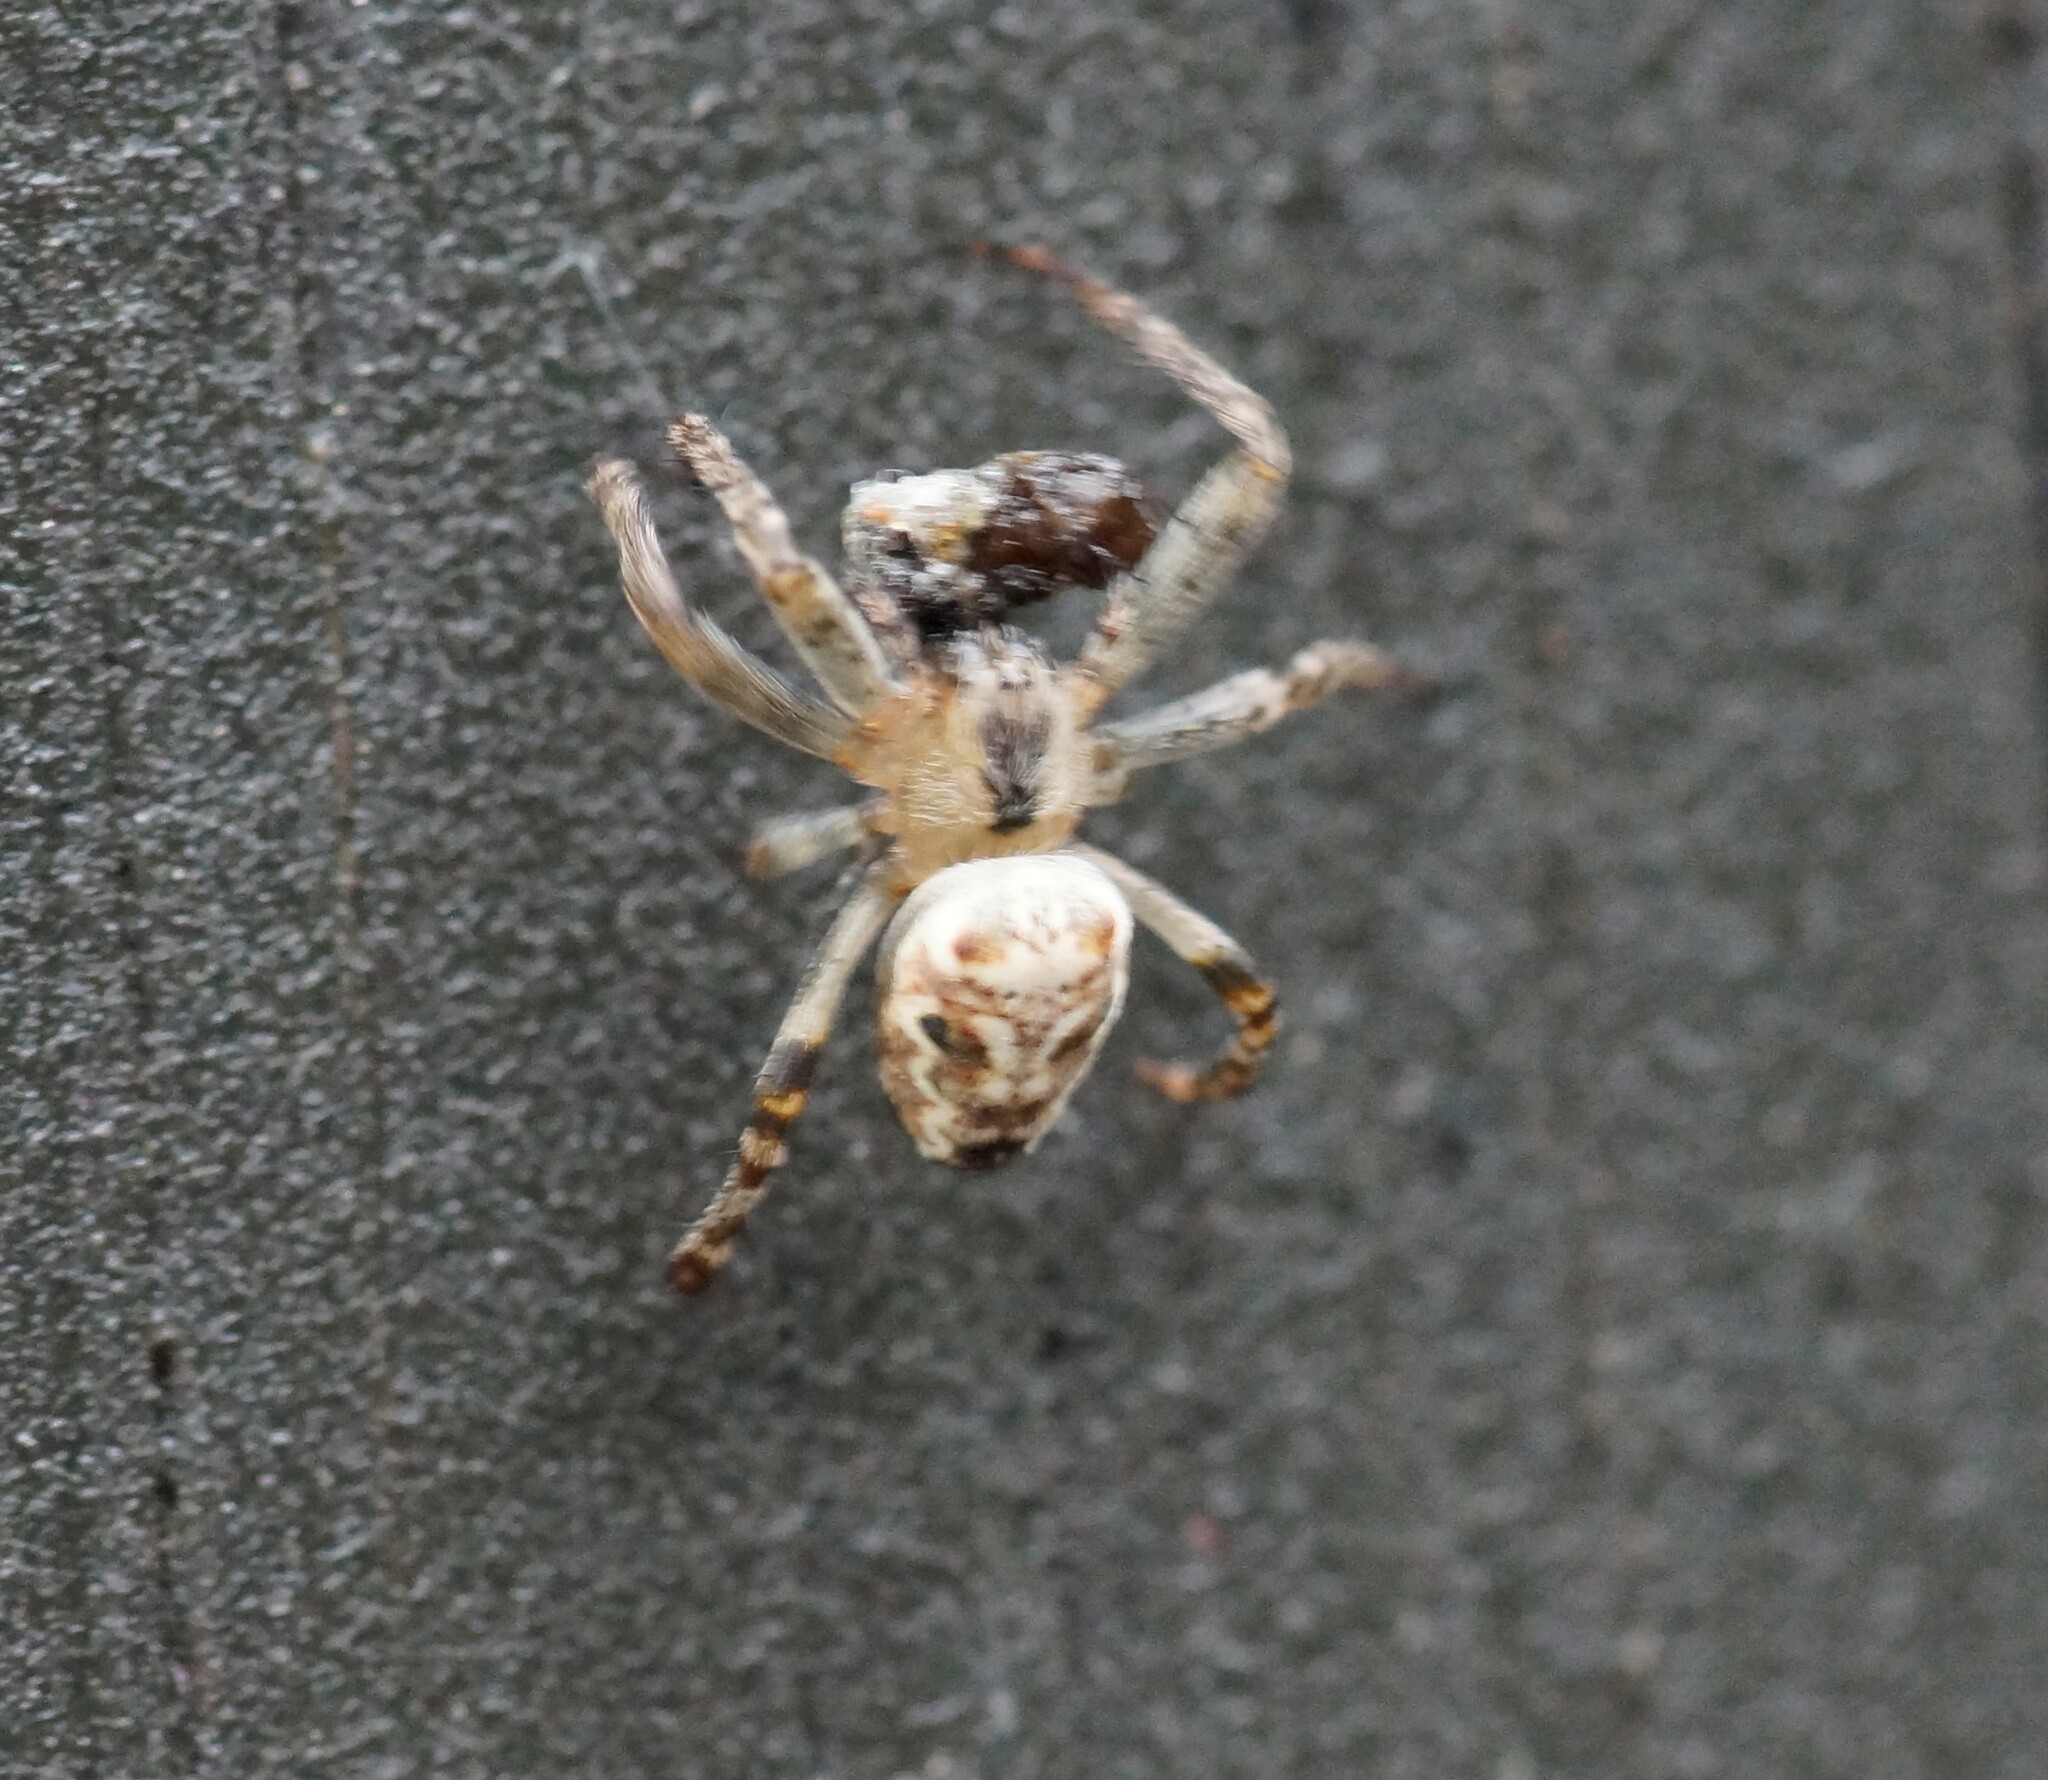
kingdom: Animalia
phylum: Arthropoda
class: Arachnida
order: Araneae
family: Araneidae
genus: Plebs
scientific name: Plebs eburnus
